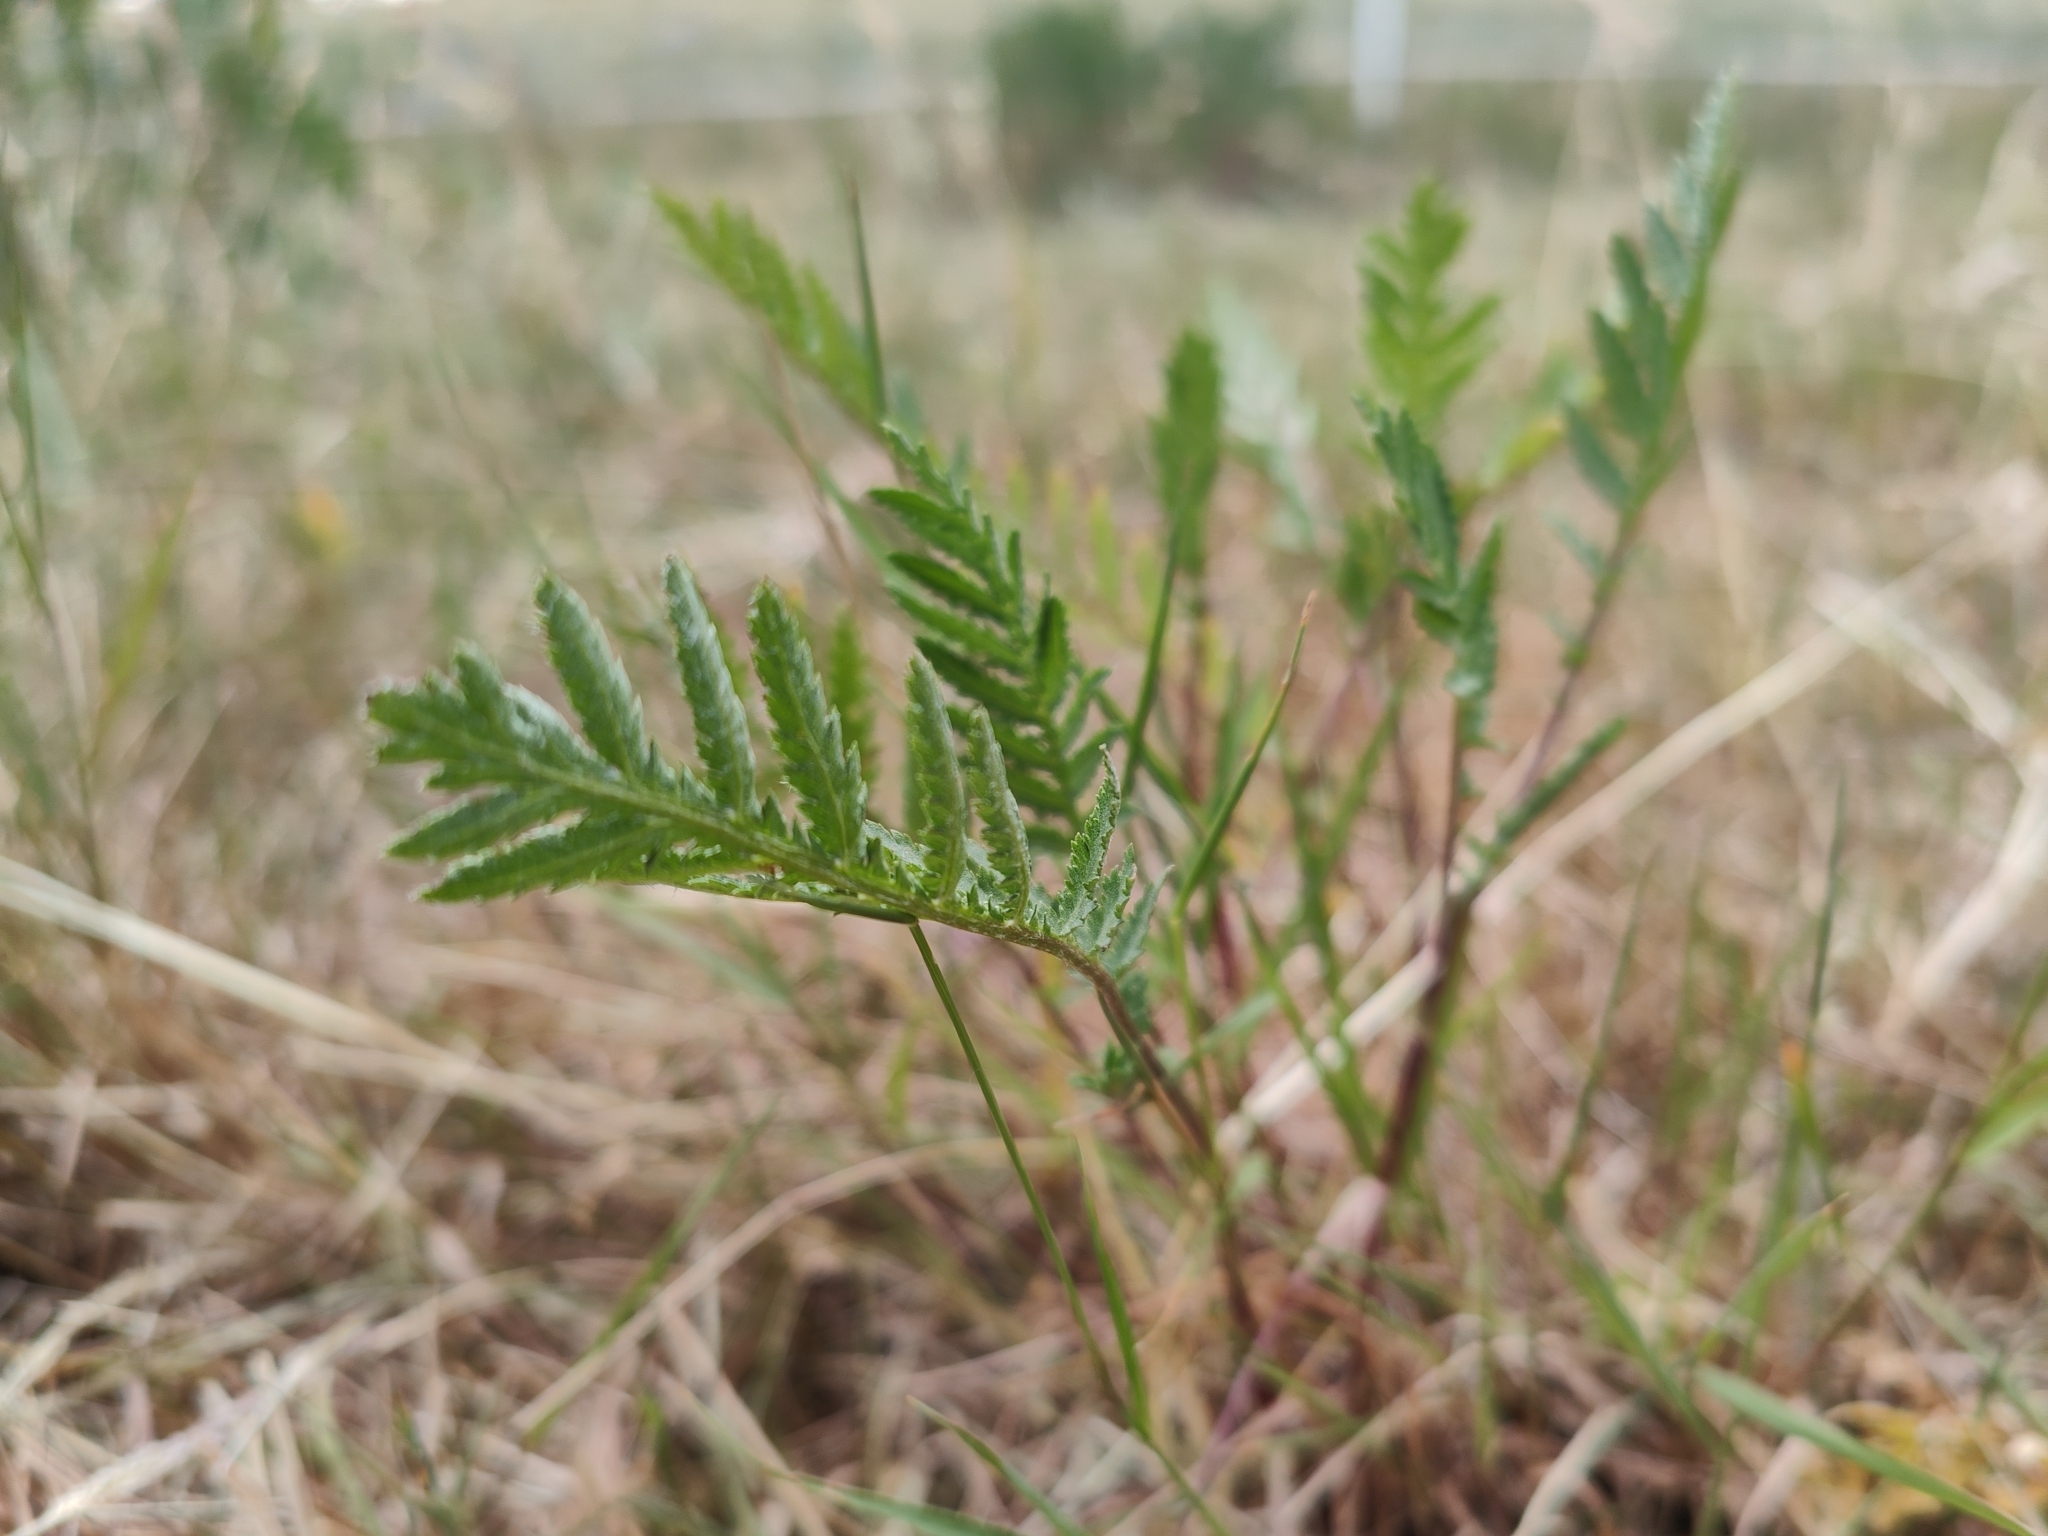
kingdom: Plantae
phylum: Tracheophyta
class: Magnoliopsida
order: Asterales
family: Asteraceae
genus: Tanacetum
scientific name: Tanacetum vulgare
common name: Common tansy
